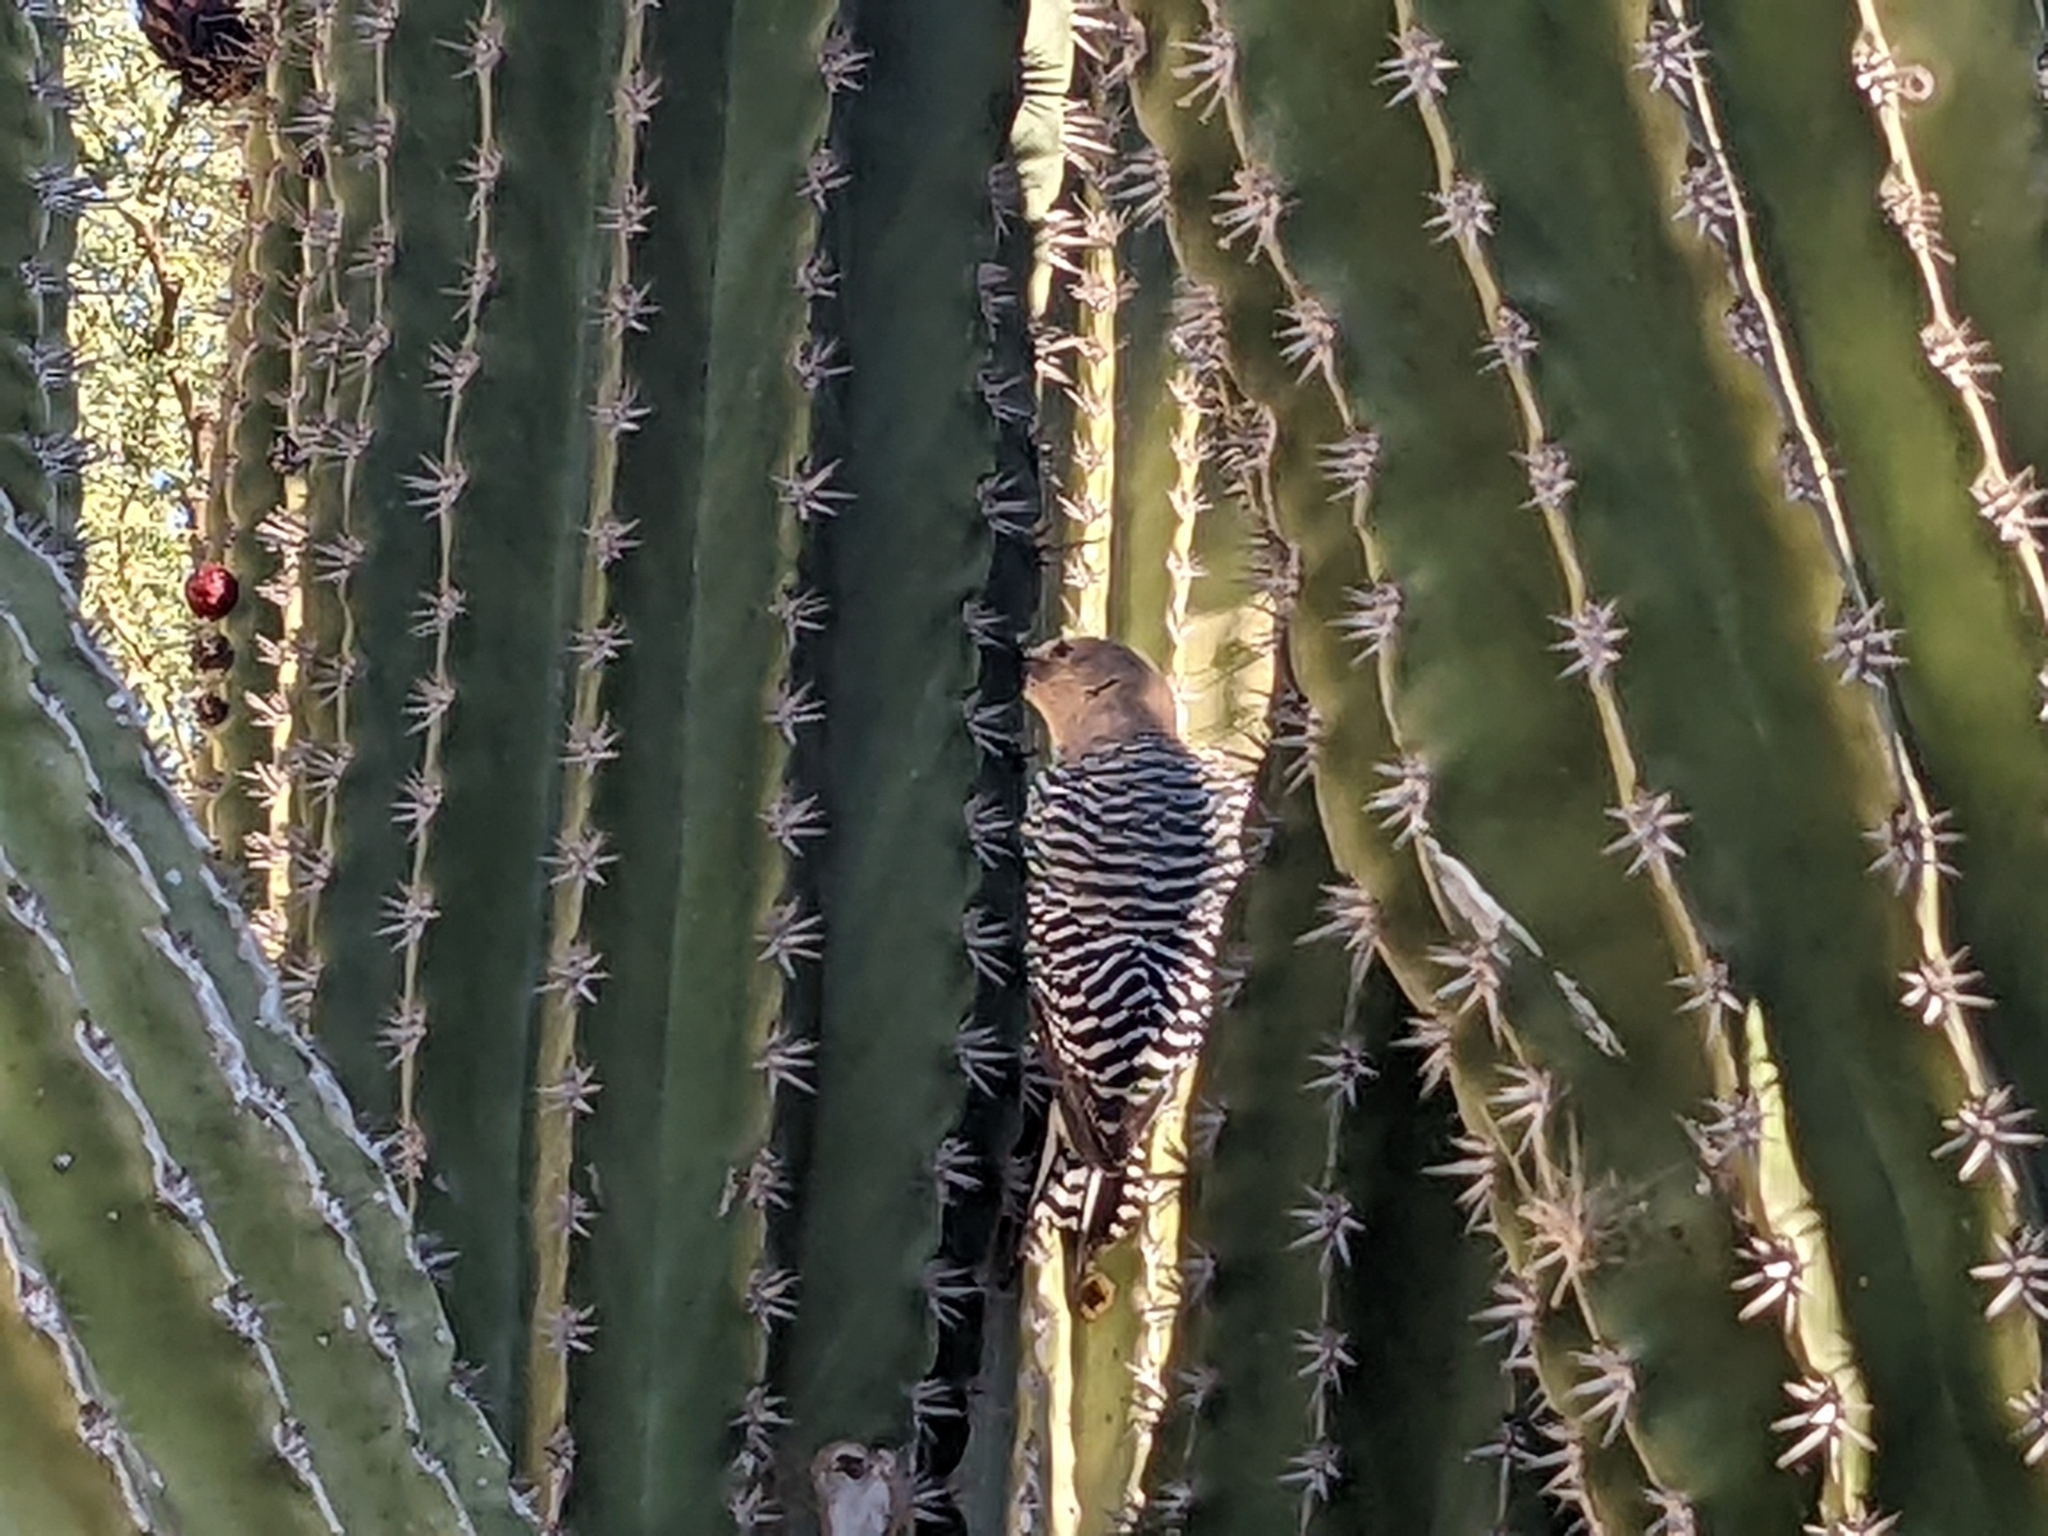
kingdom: Animalia
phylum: Chordata
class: Aves
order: Piciformes
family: Picidae
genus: Melanerpes
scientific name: Melanerpes uropygialis
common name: Gila woodpecker
